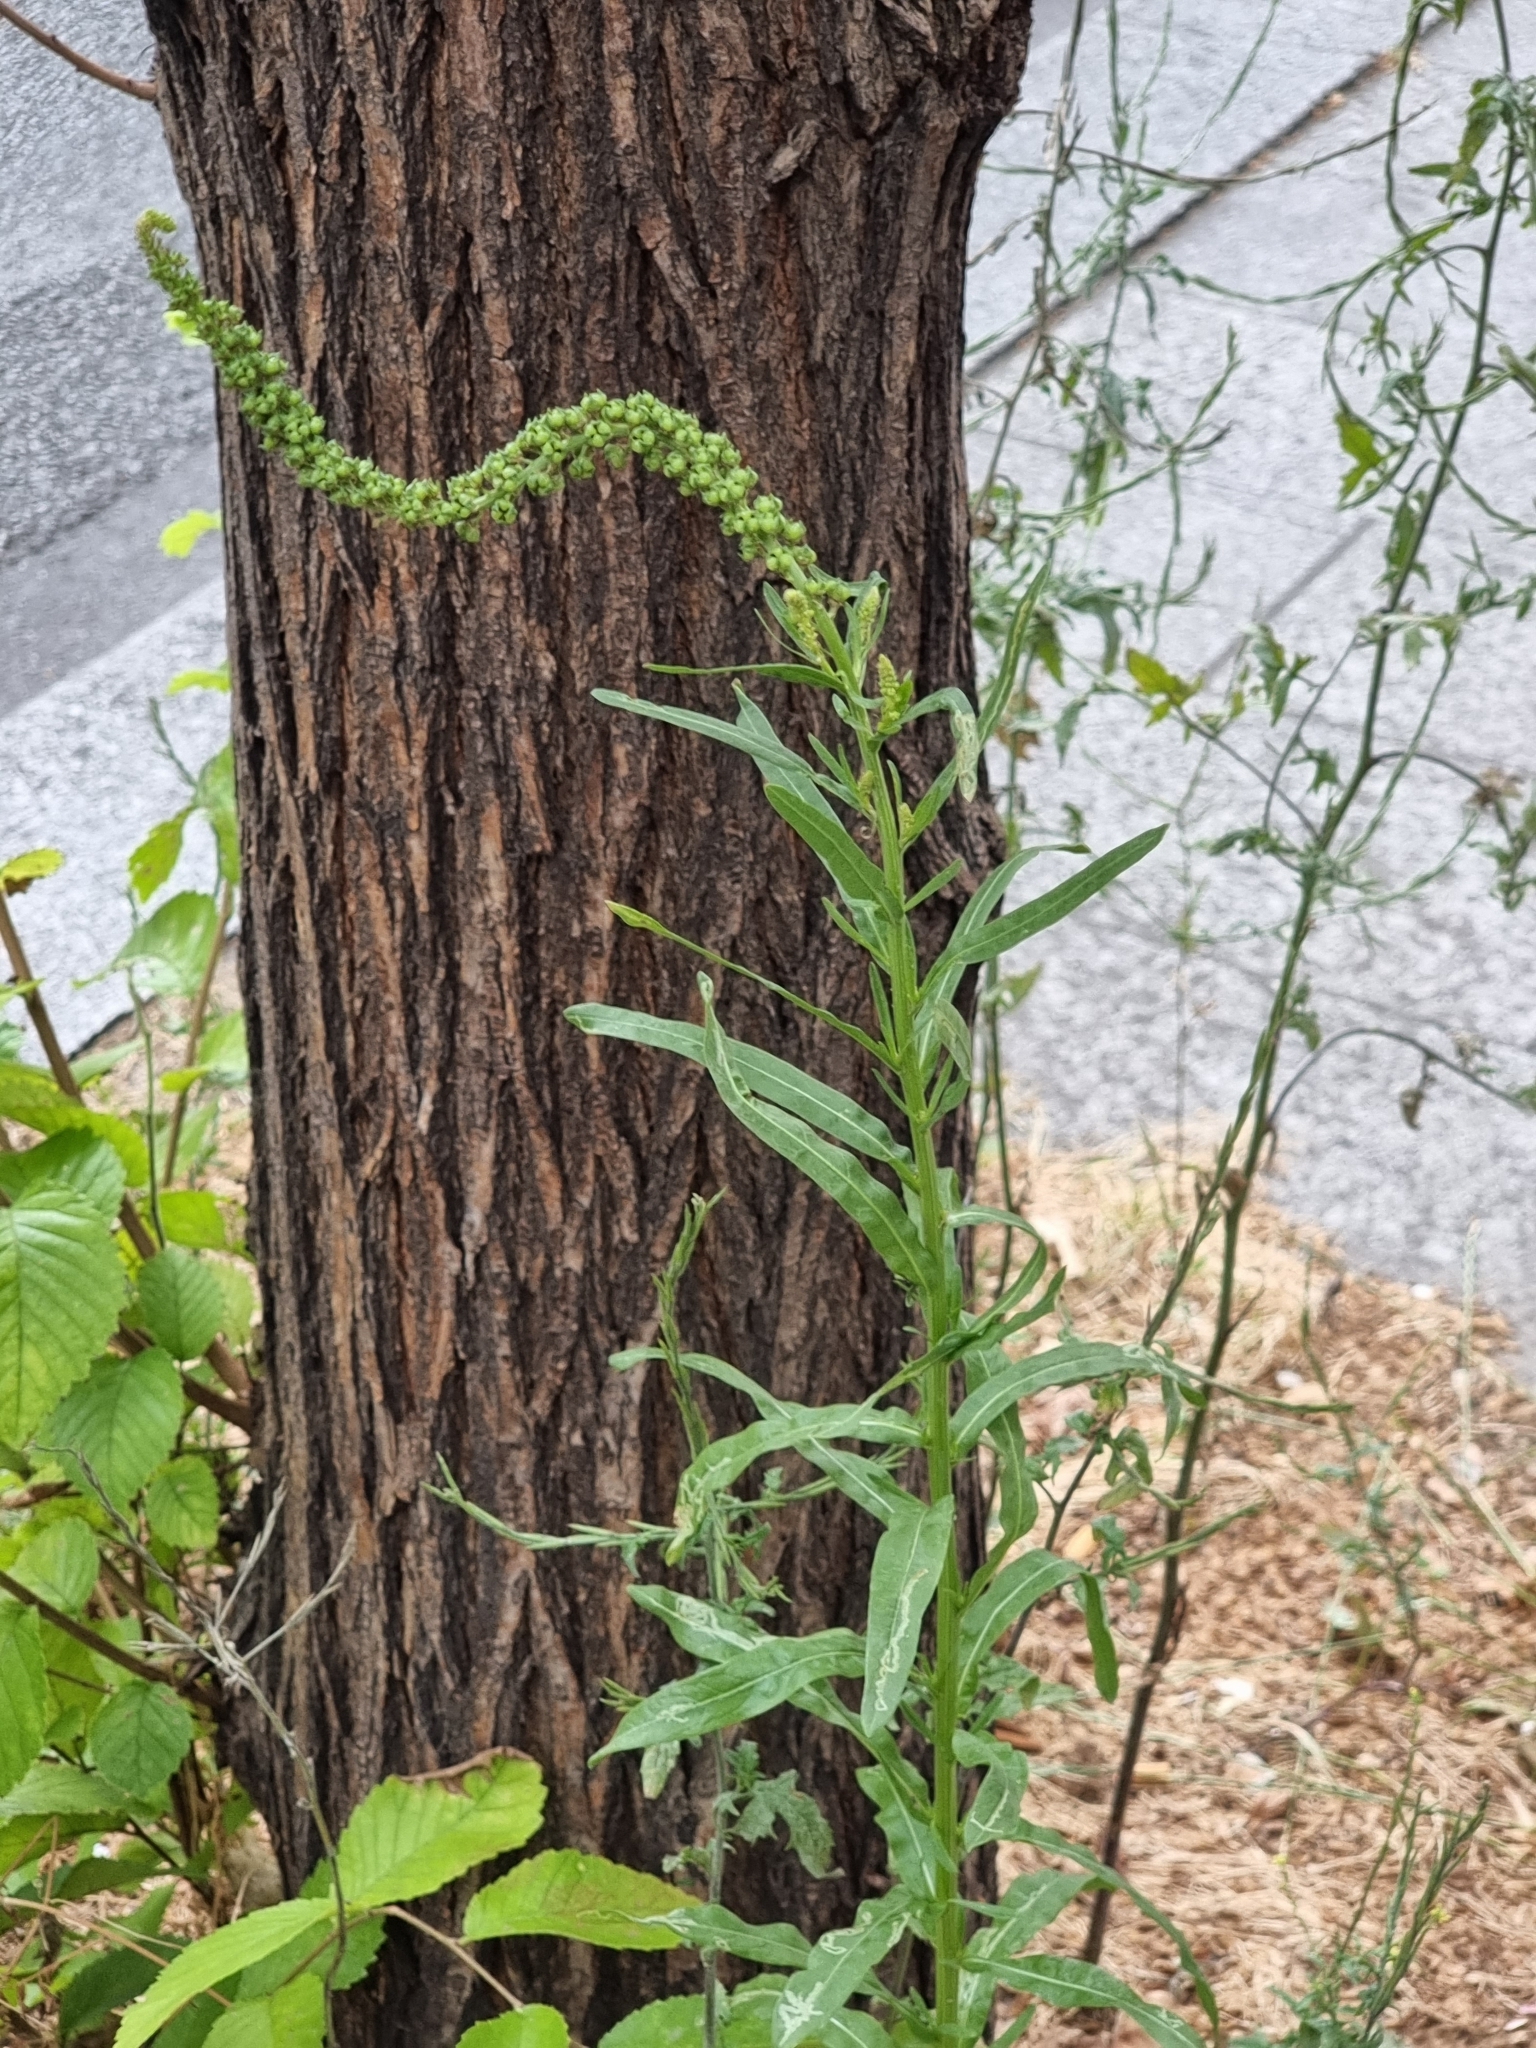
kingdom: Plantae
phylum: Tracheophyta
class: Magnoliopsida
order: Brassicales
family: Resedaceae
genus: Reseda
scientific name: Reseda luteola
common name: Weld
